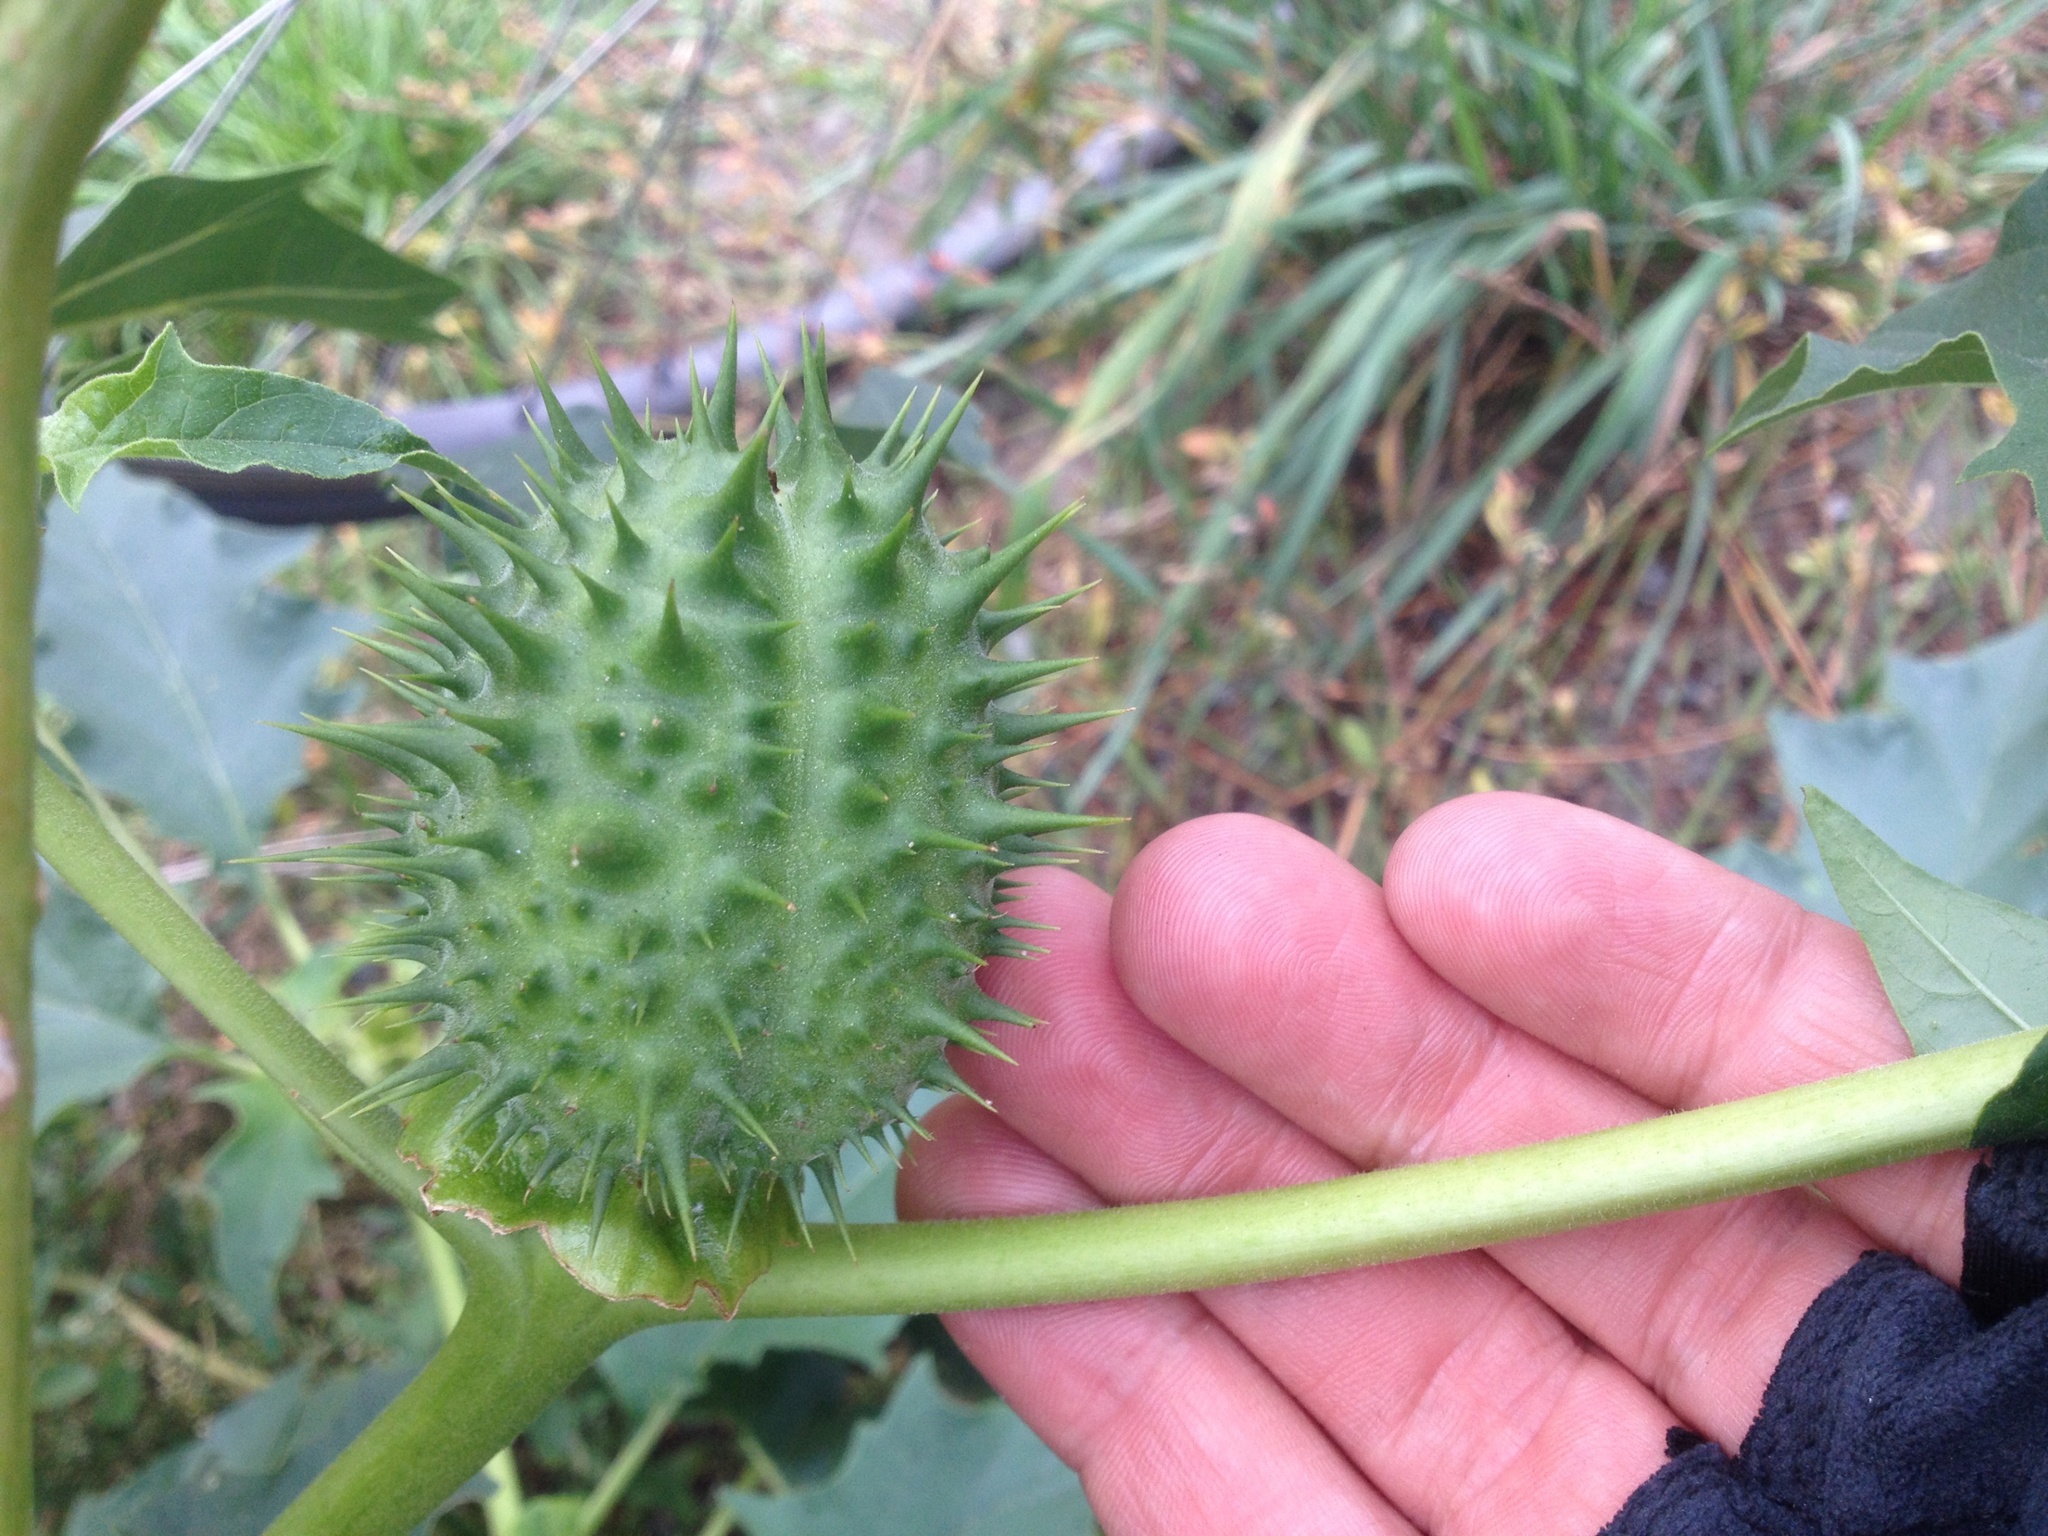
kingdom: Plantae
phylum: Tracheophyta
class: Magnoliopsida
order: Solanales
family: Solanaceae
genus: Datura
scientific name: Datura stramonium
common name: Thorn-apple
